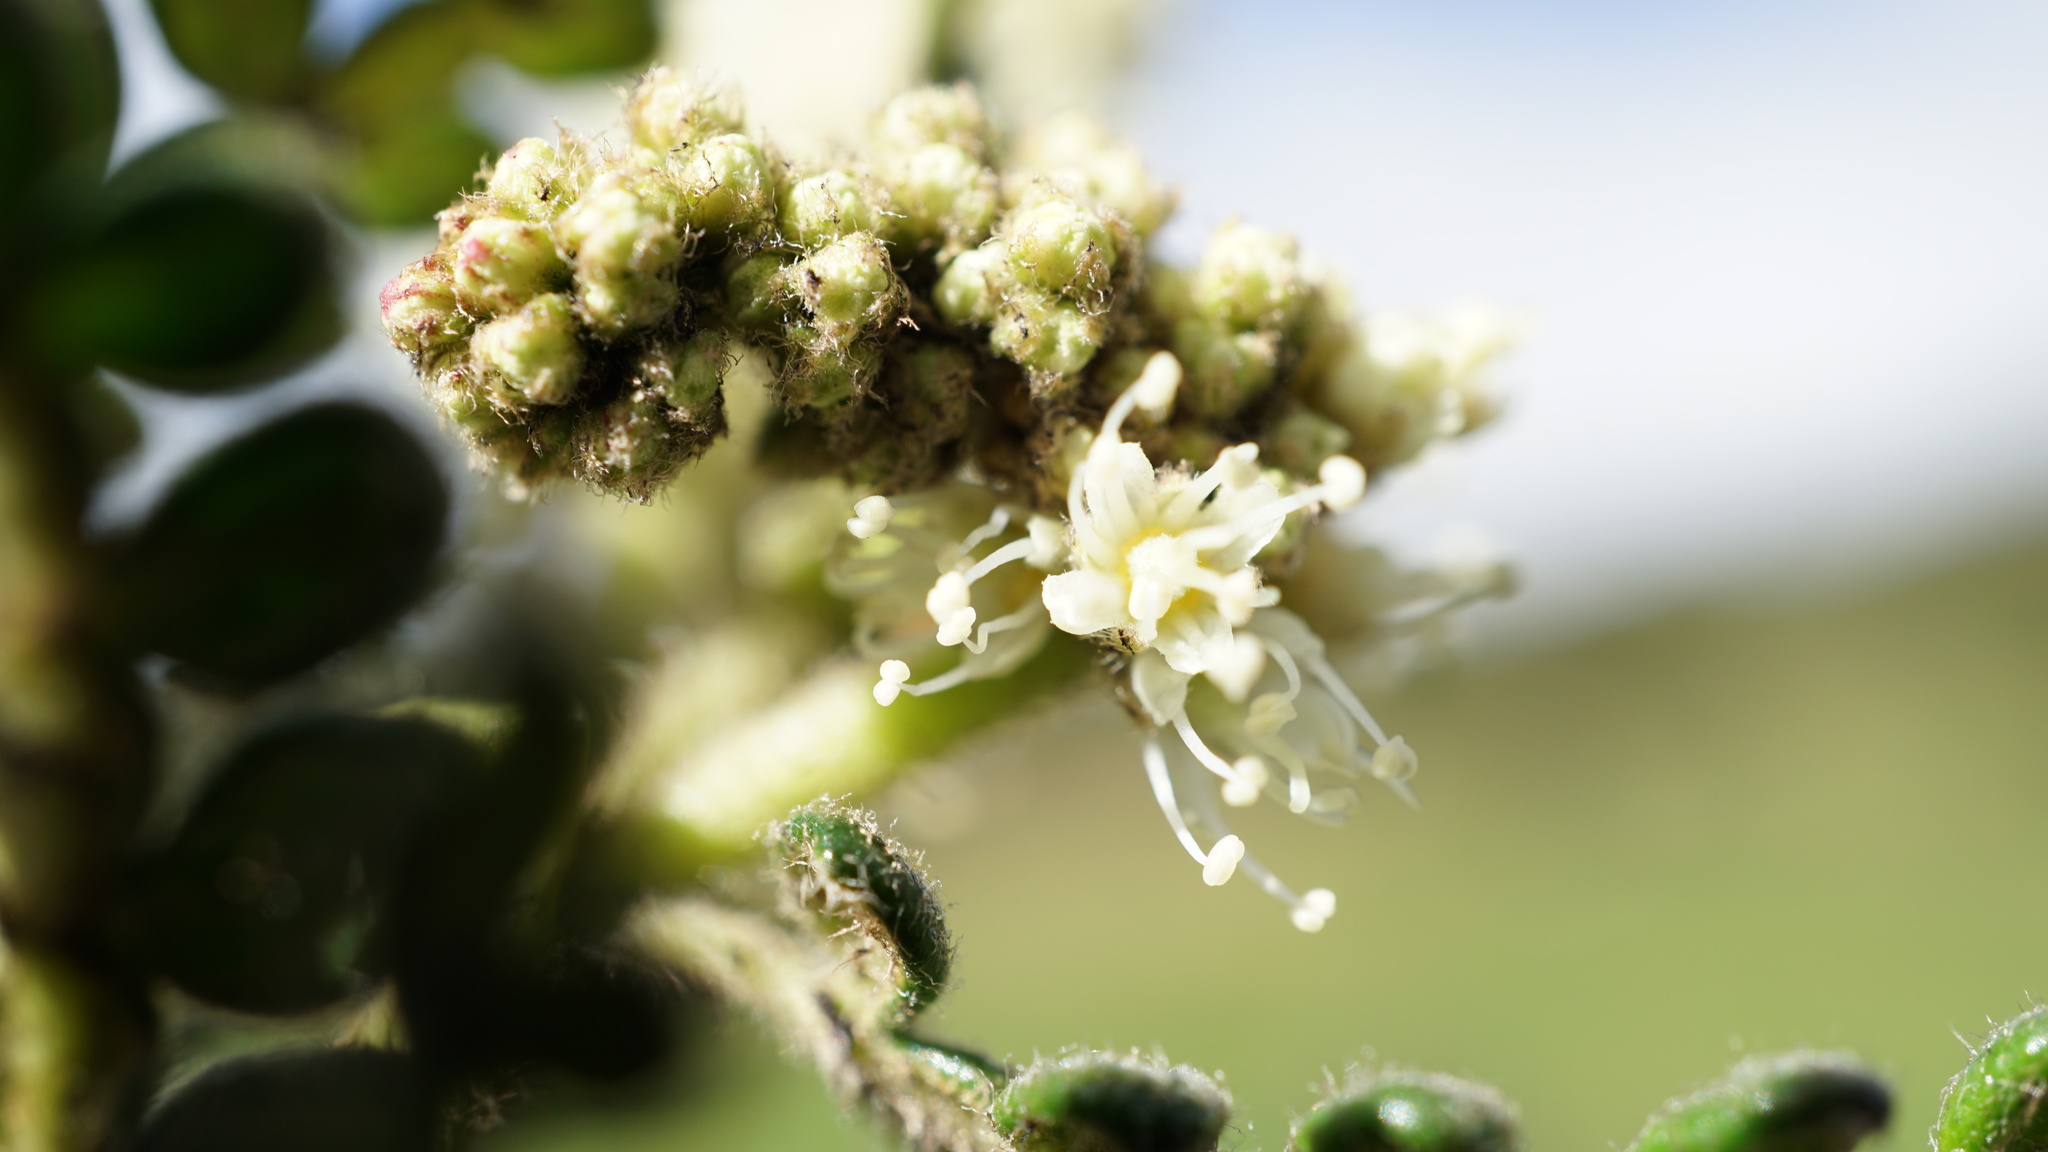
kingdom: Plantae
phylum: Tracheophyta
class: Magnoliopsida
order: Oxalidales
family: Cunoniaceae
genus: Weinmannia
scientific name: Weinmannia tomentosa
